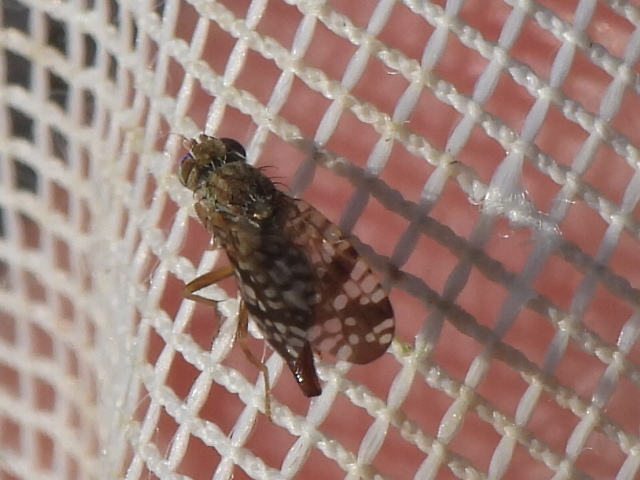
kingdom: Animalia
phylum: Arthropoda
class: Insecta
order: Diptera
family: Tephritidae
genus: Neotephritis
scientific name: Neotephritis finalis
